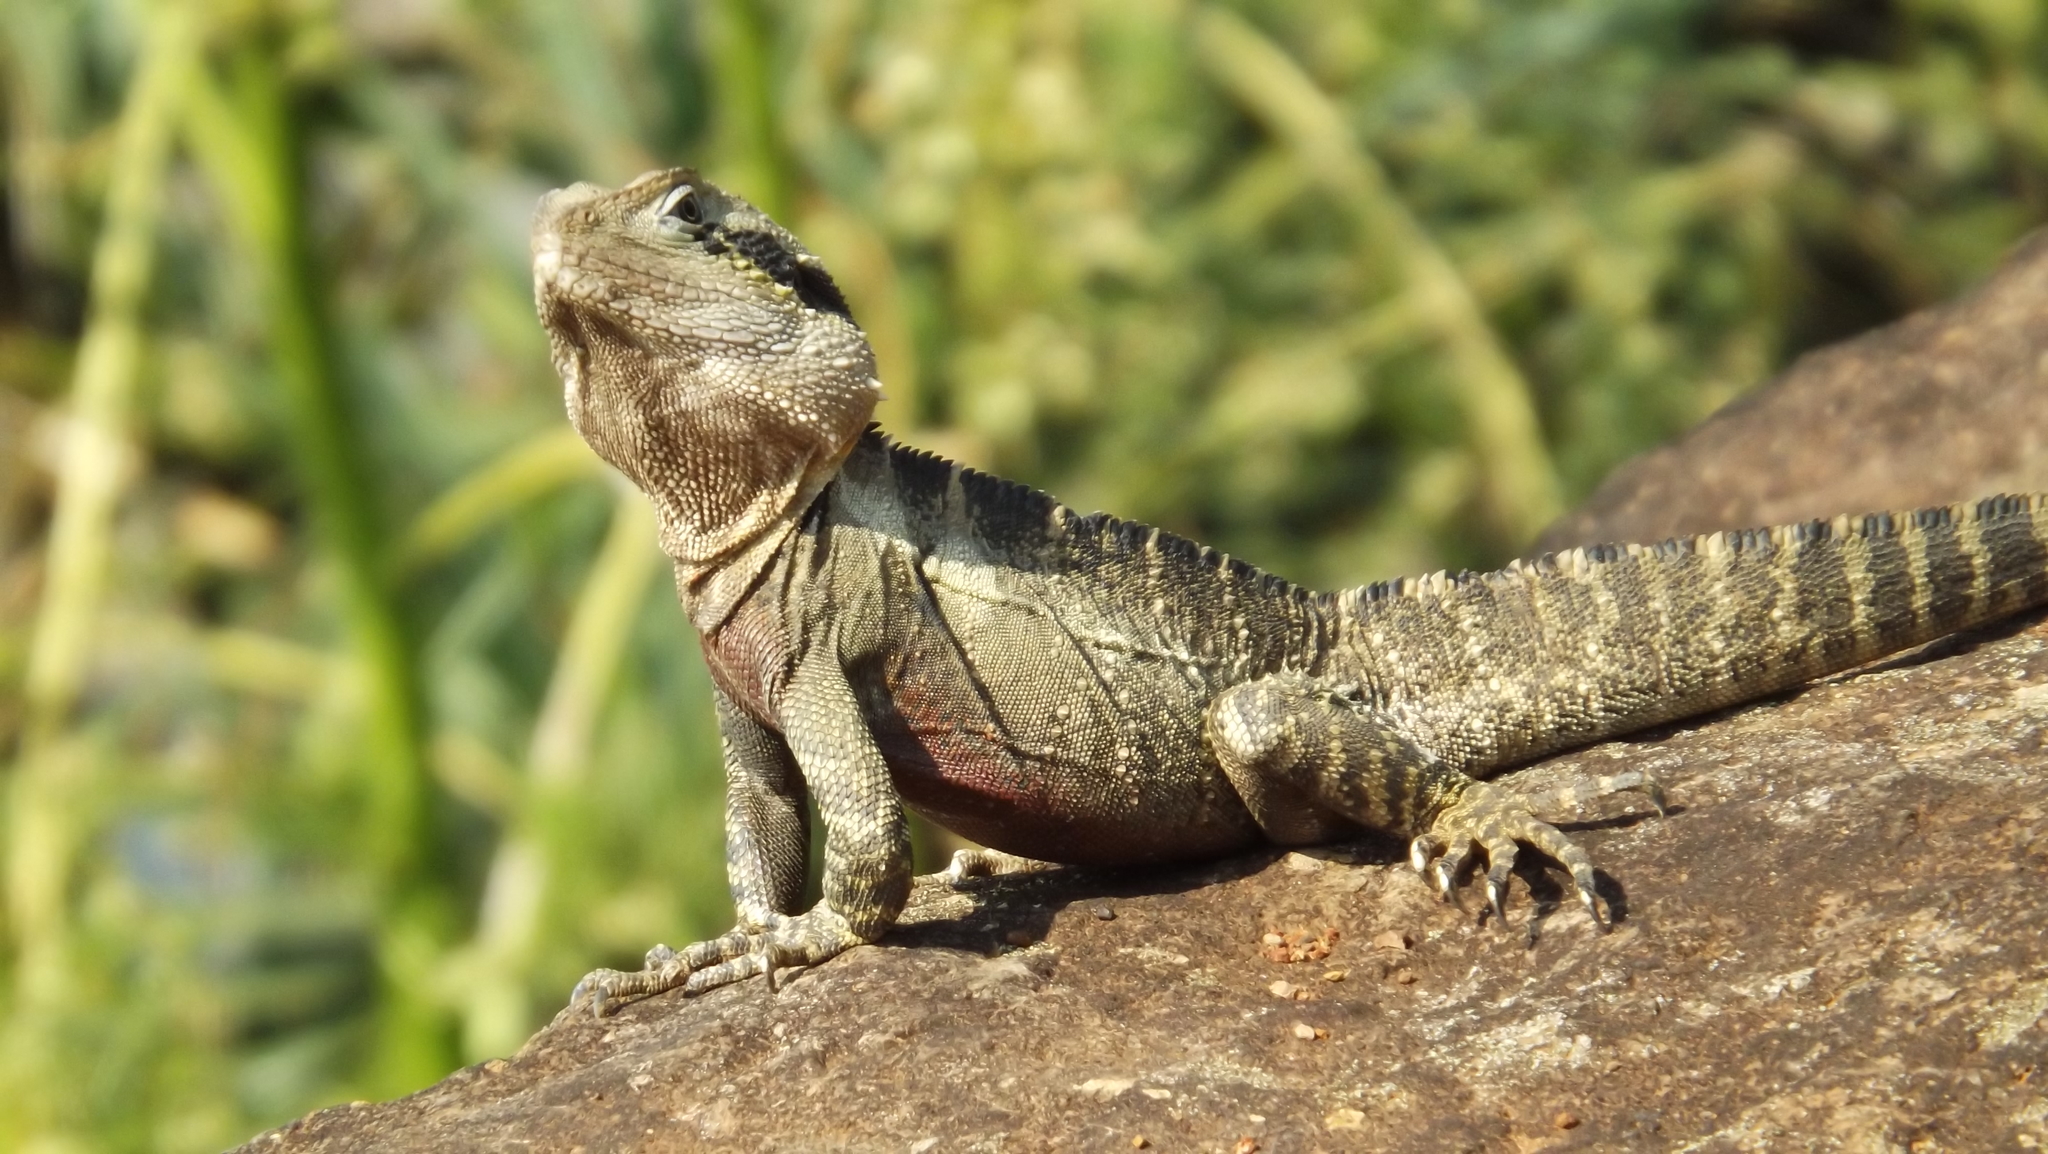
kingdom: Animalia
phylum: Chordata
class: Squamata
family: Agamidae
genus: Intellagama
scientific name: Intellagama lesueurii
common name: Eastern water dragon
